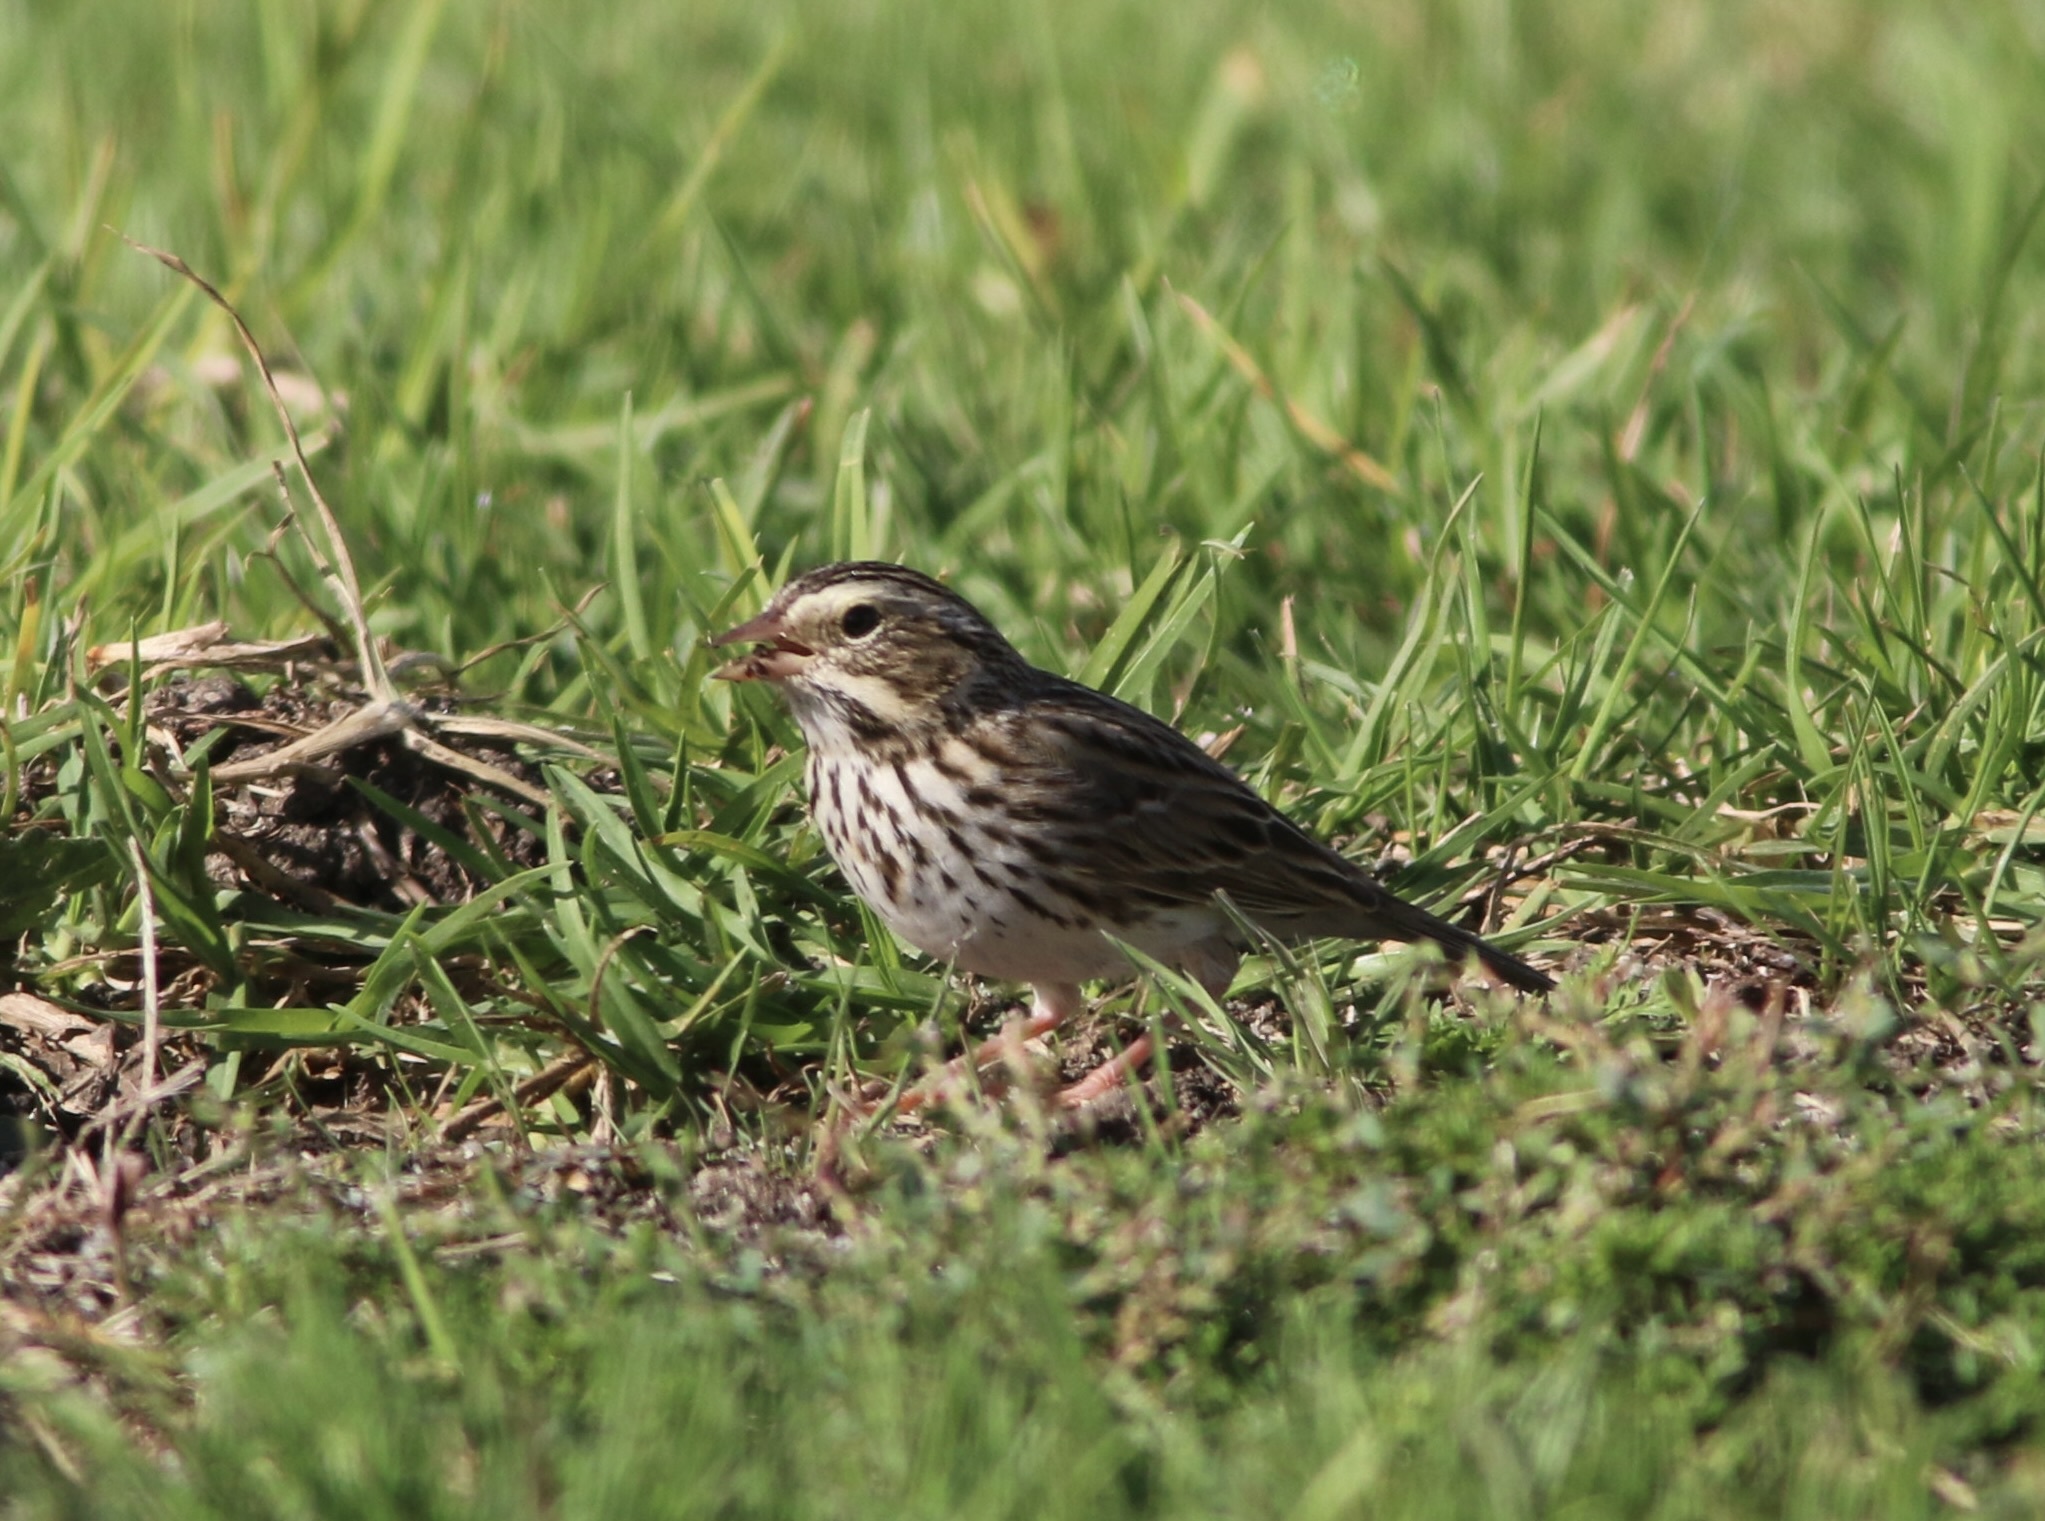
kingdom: Animalia
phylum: Chordata
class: Aves
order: Passeriformes
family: Passerellidae
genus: Passerculus
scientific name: Passerculus sandwichensis
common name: Savannah sparrow
